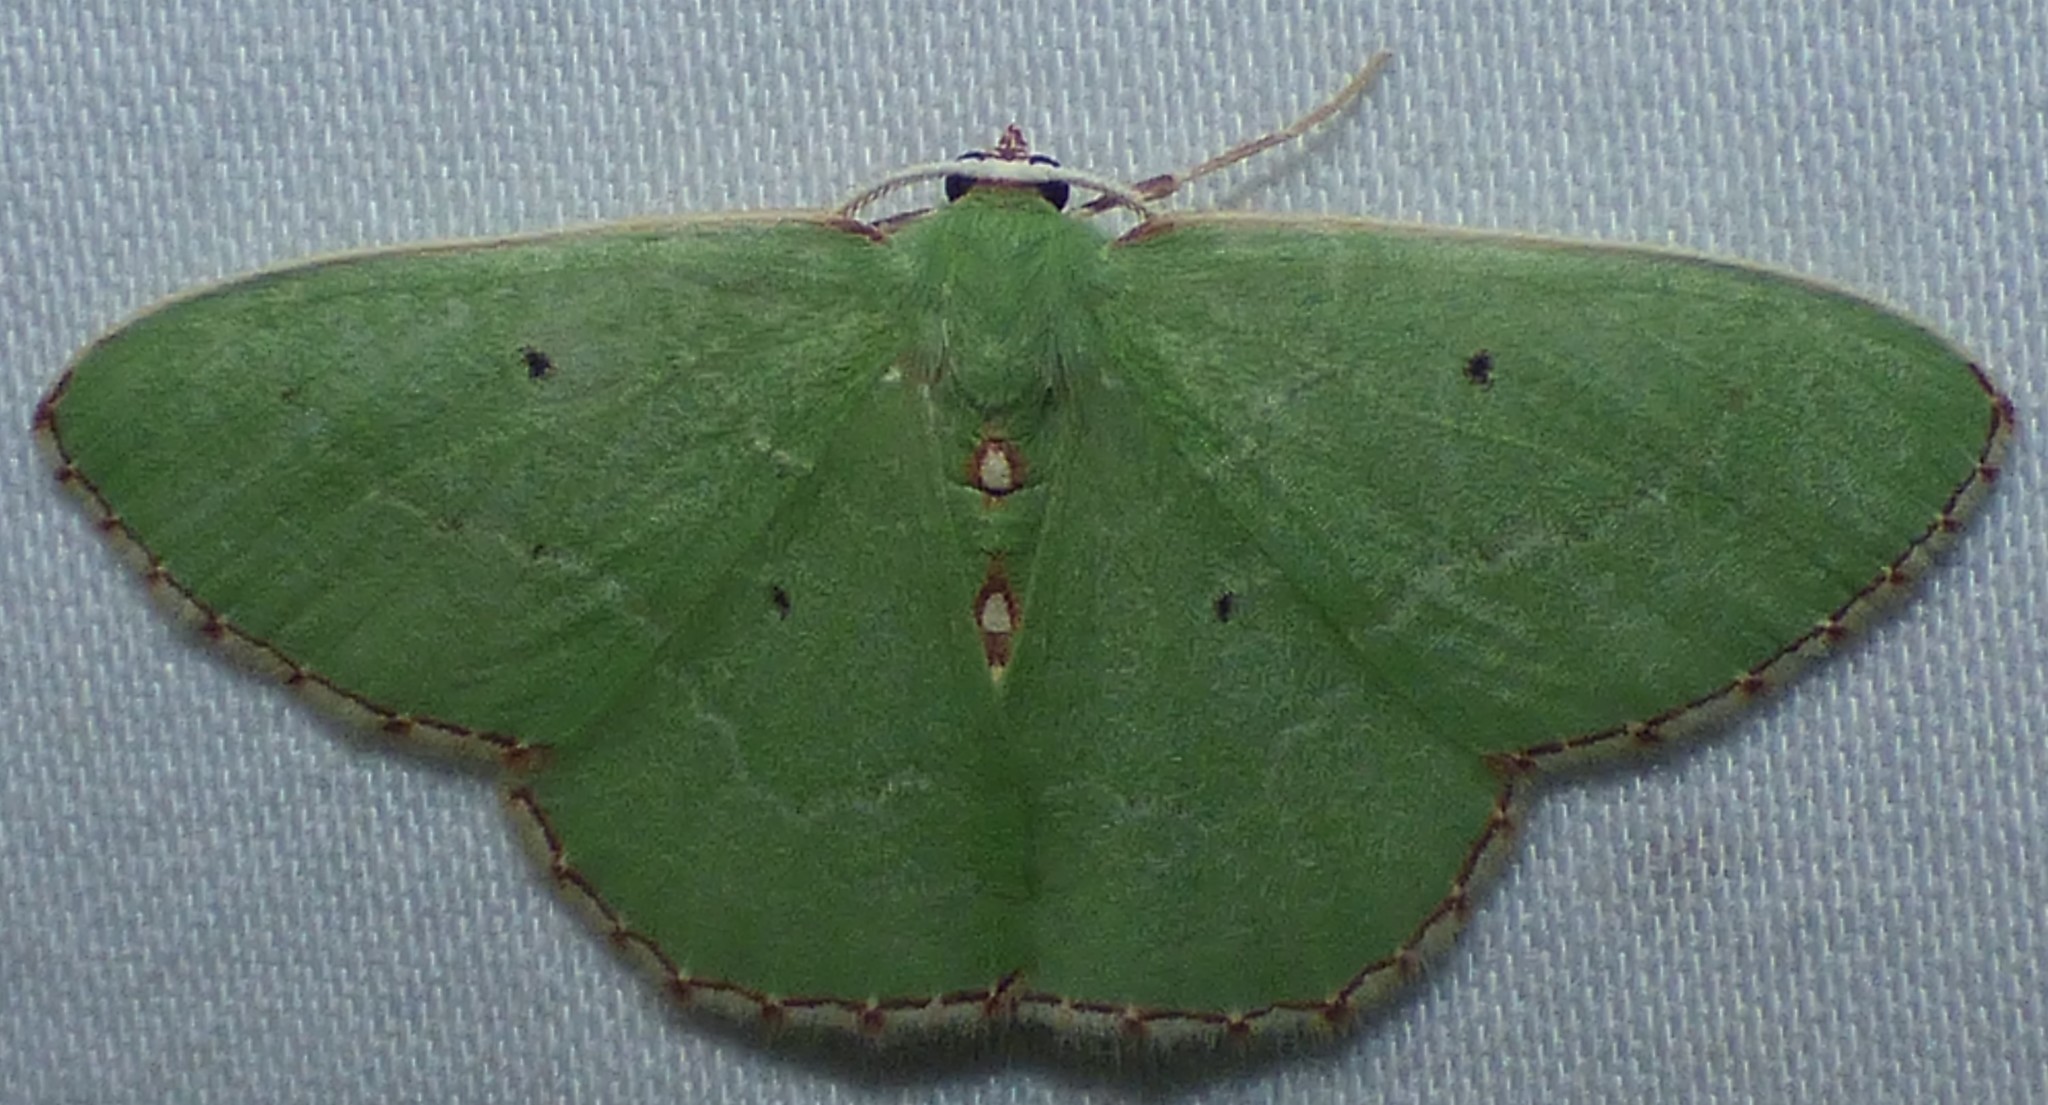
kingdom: Animalia
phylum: Arthropoda
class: Insecta
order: Lepidoptera
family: Geometridae
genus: Nemoria
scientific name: Nemoria lixaria
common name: Red-bordered emerald
